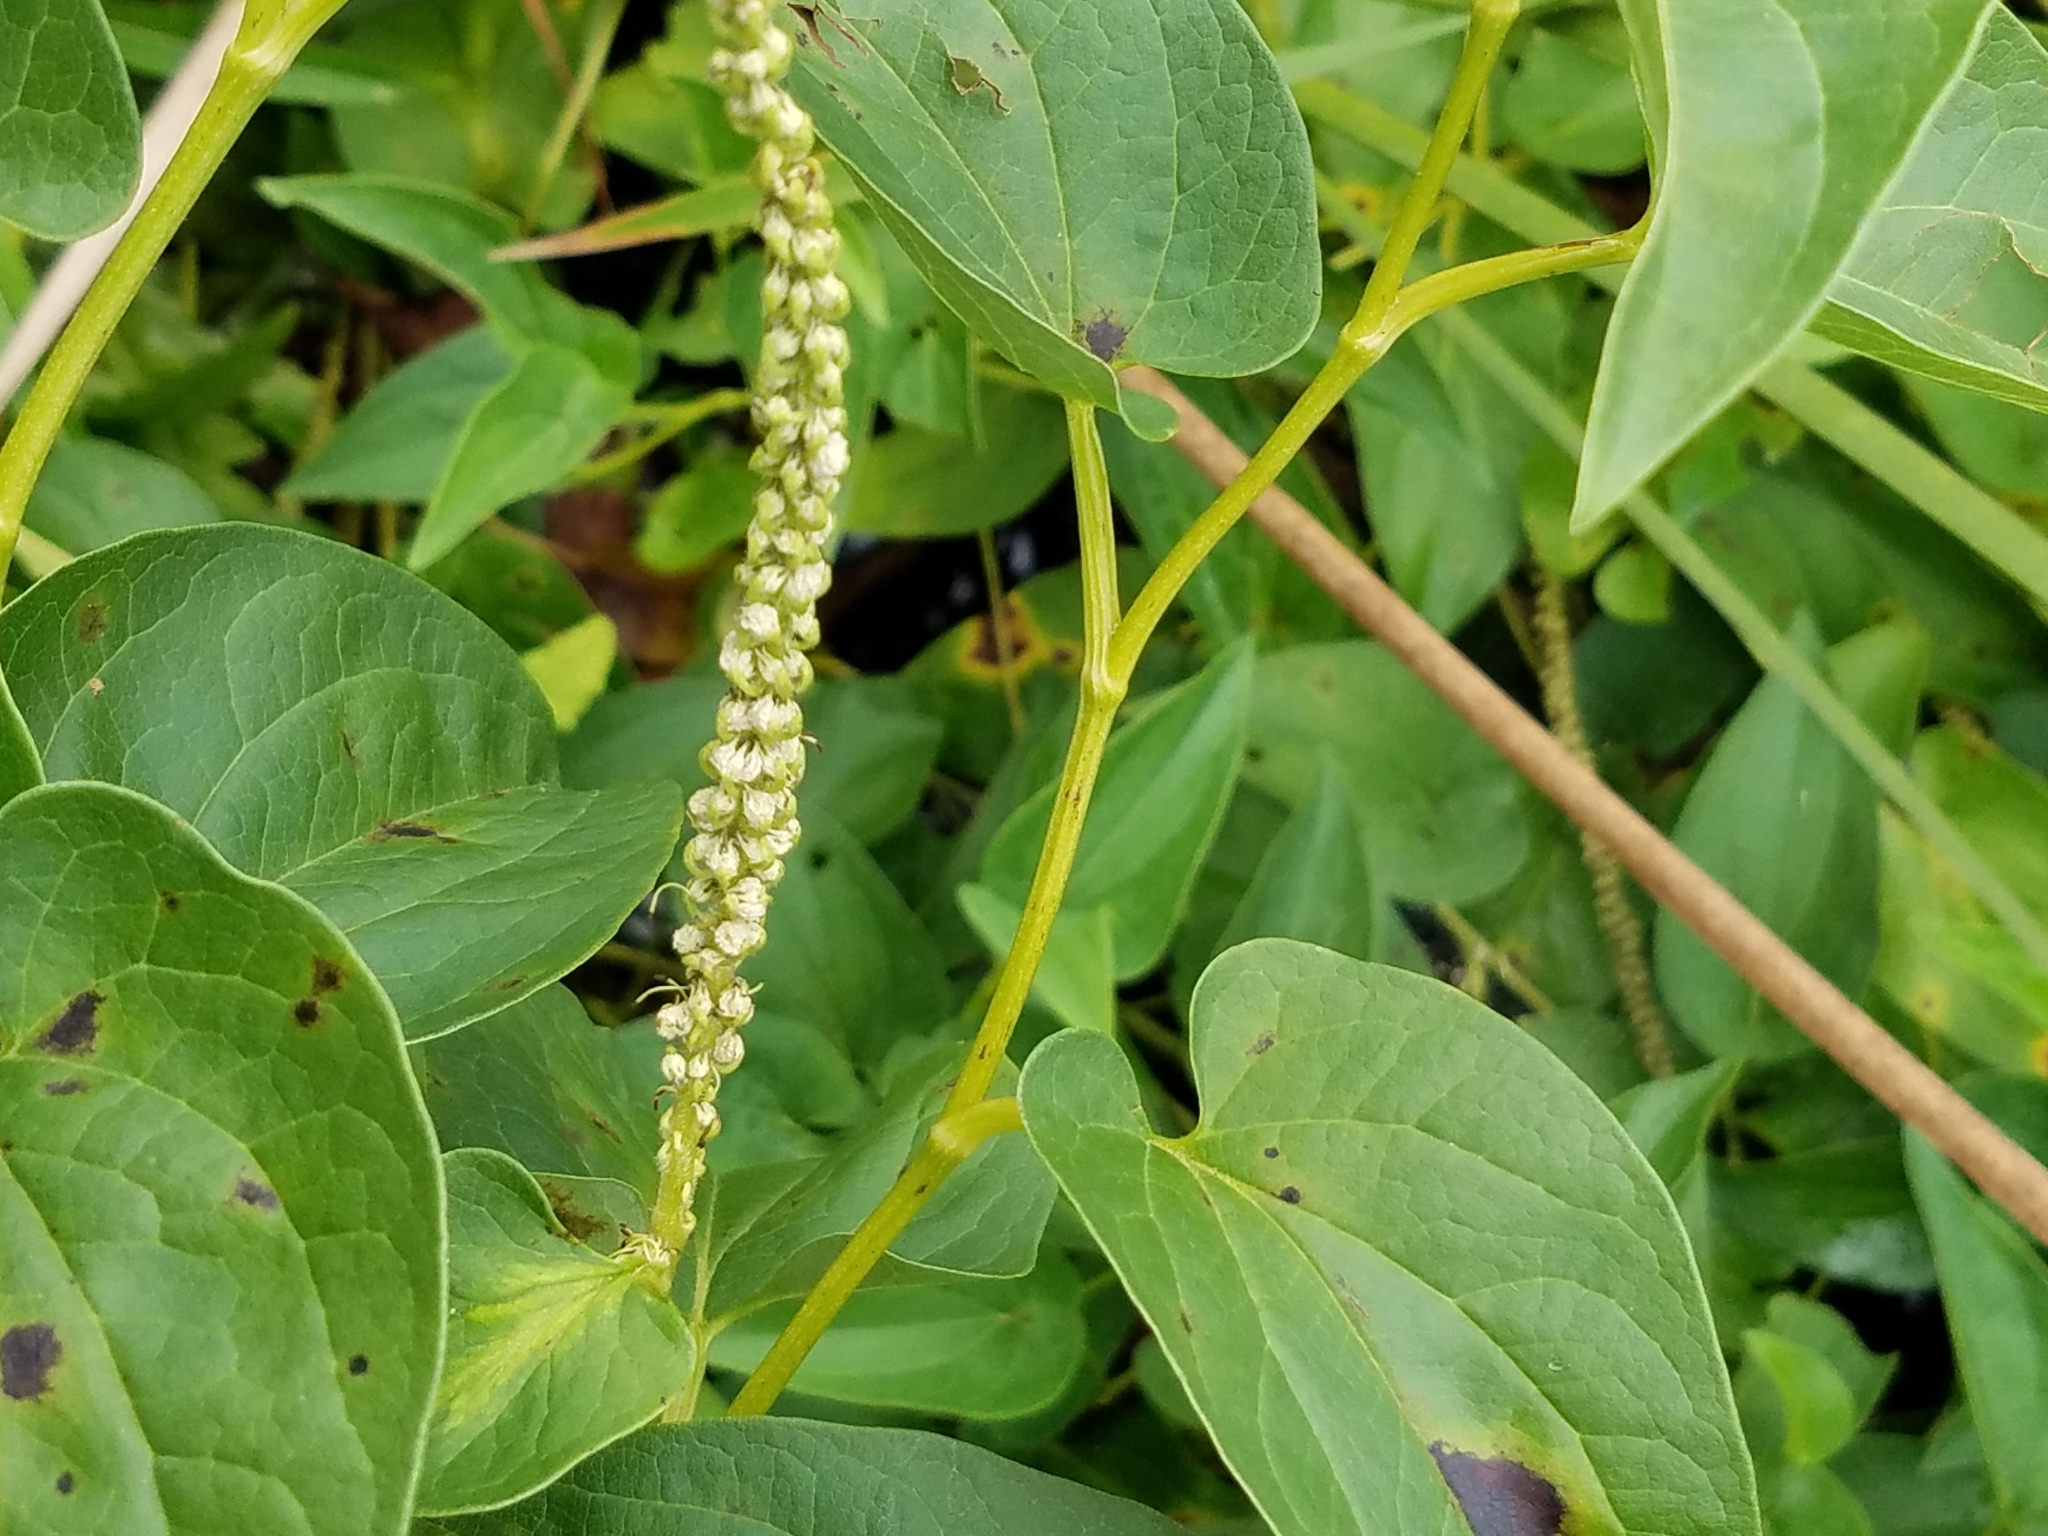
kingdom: Plantae
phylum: Tracheophyta
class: Magnoliopsida
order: Piperales
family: Saururaceae
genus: Saururus
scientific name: Saururus cernuus
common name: Lizard's-tail
